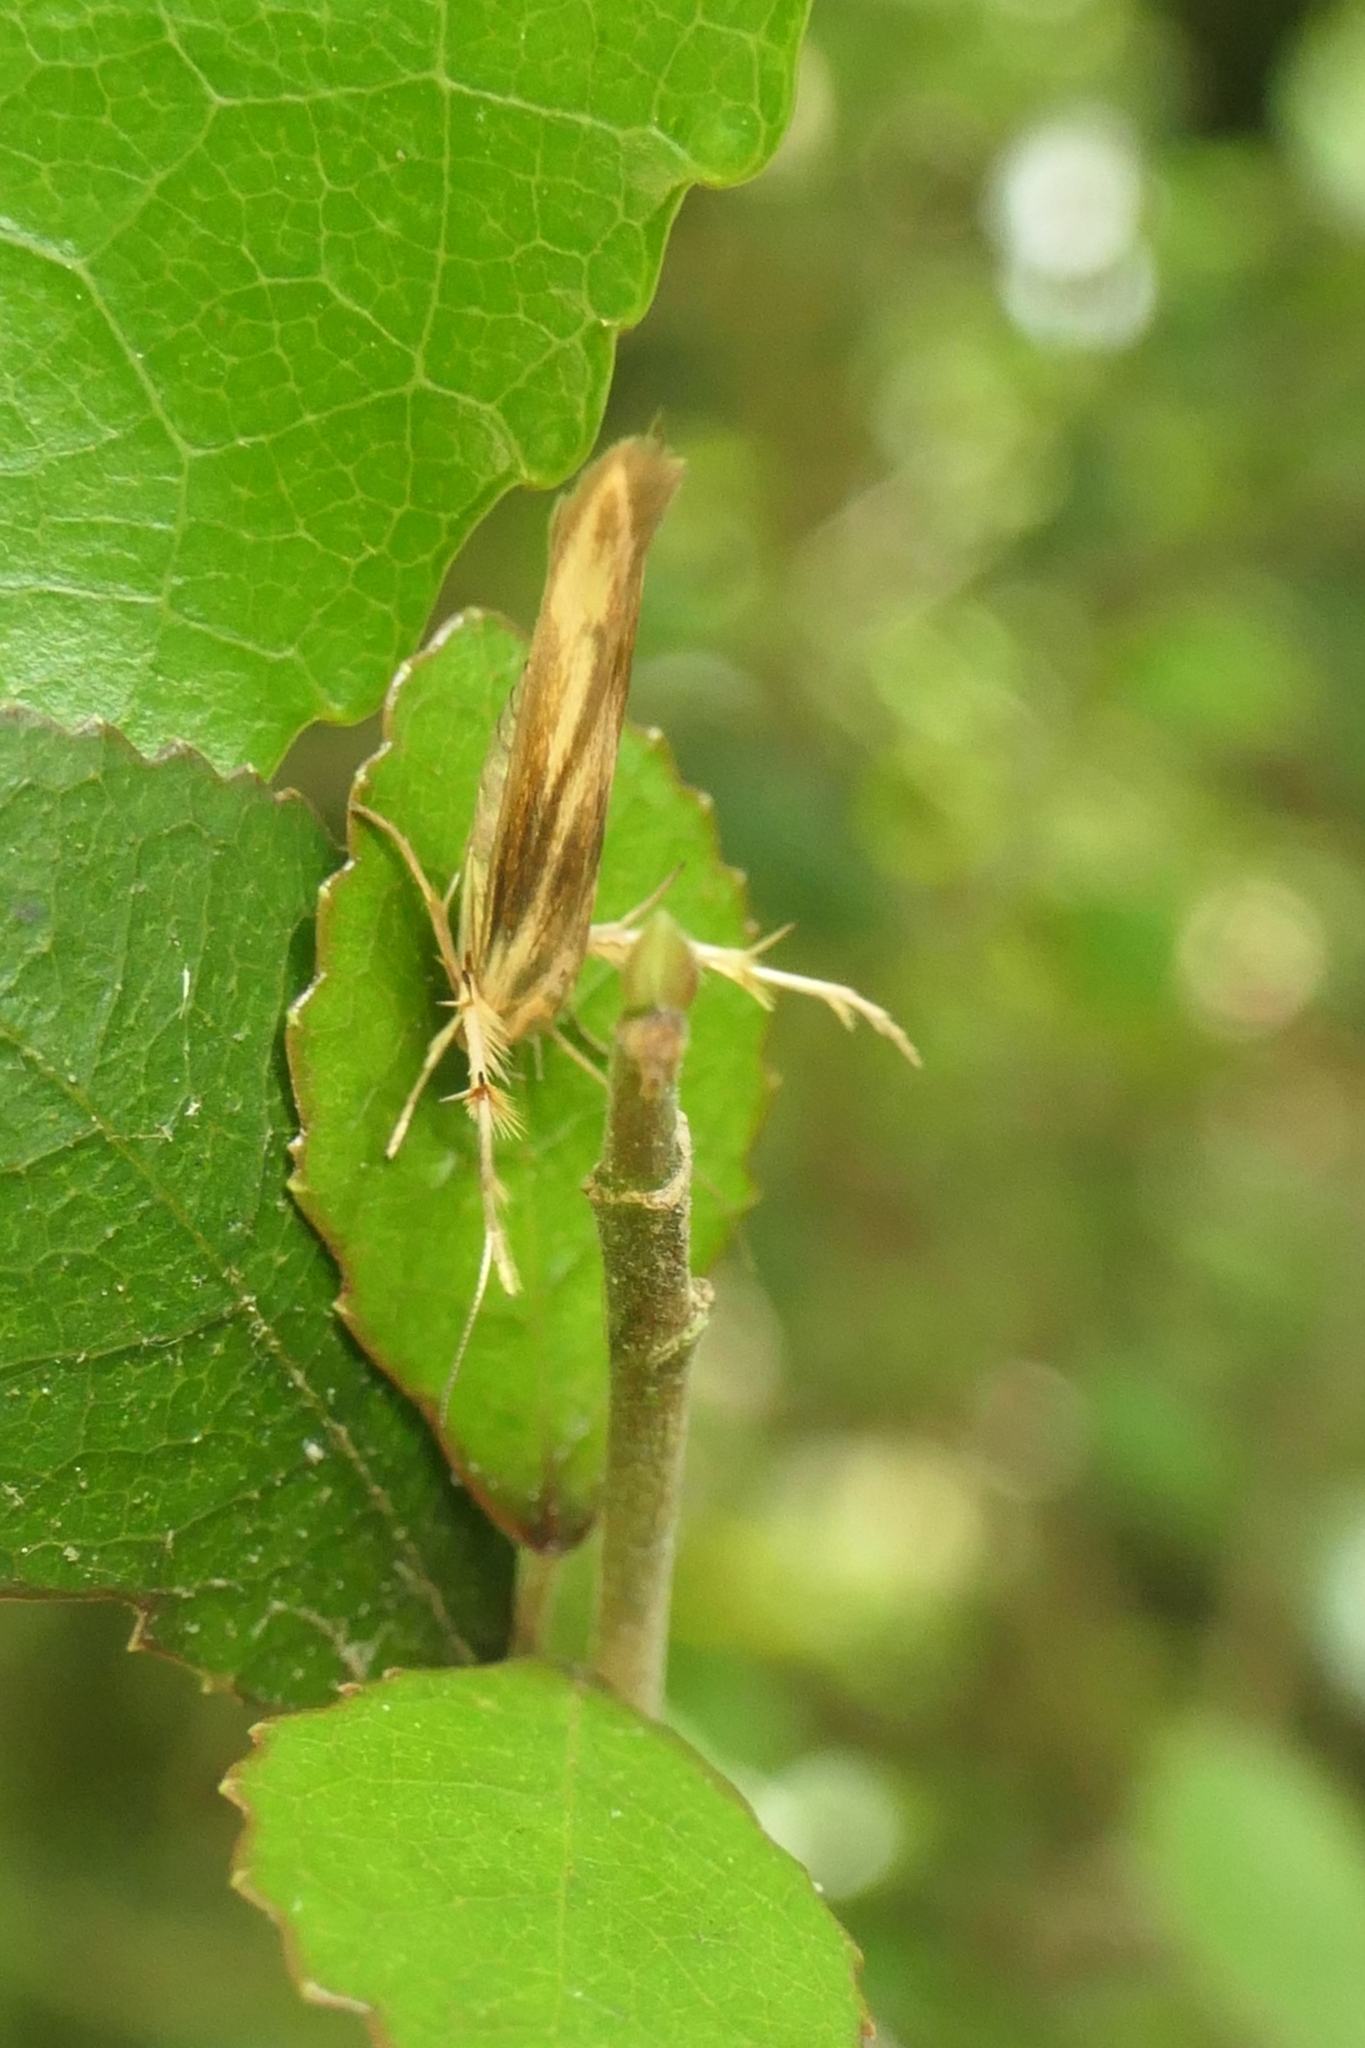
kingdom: Animalia
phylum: Arthropoda
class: Insecta
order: Lepidoptera
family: Stathmopodidae
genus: Stathmopoda
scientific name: Stathmopoda aposema
